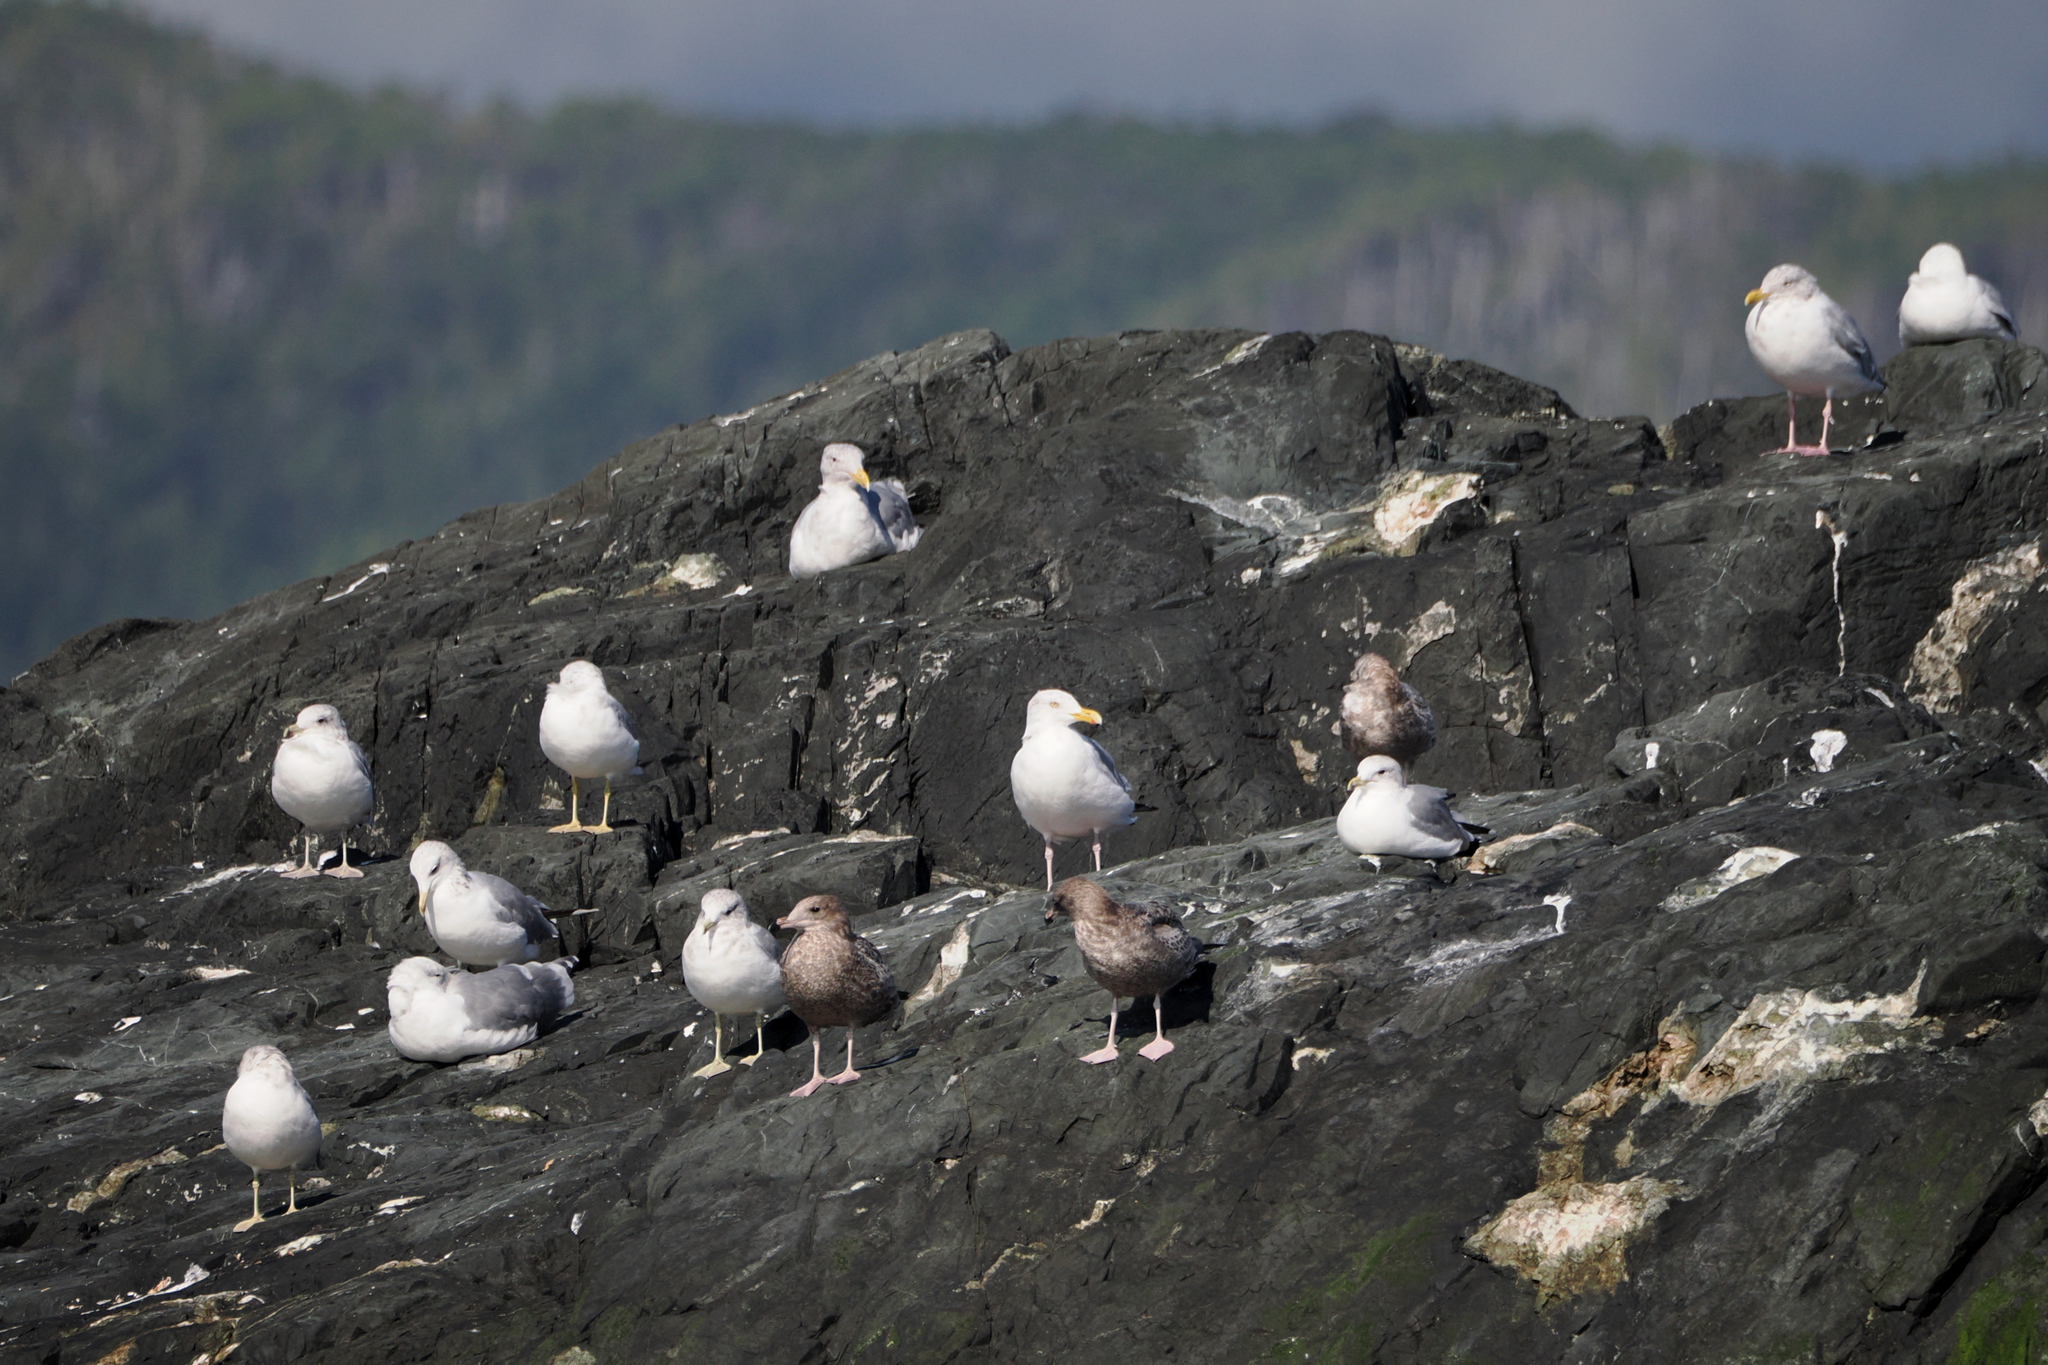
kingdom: Animalia
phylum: Chordata
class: Aves
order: Charadriiformes
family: Laridae
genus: Larus
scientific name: Larus argentatus
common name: Herring gull
